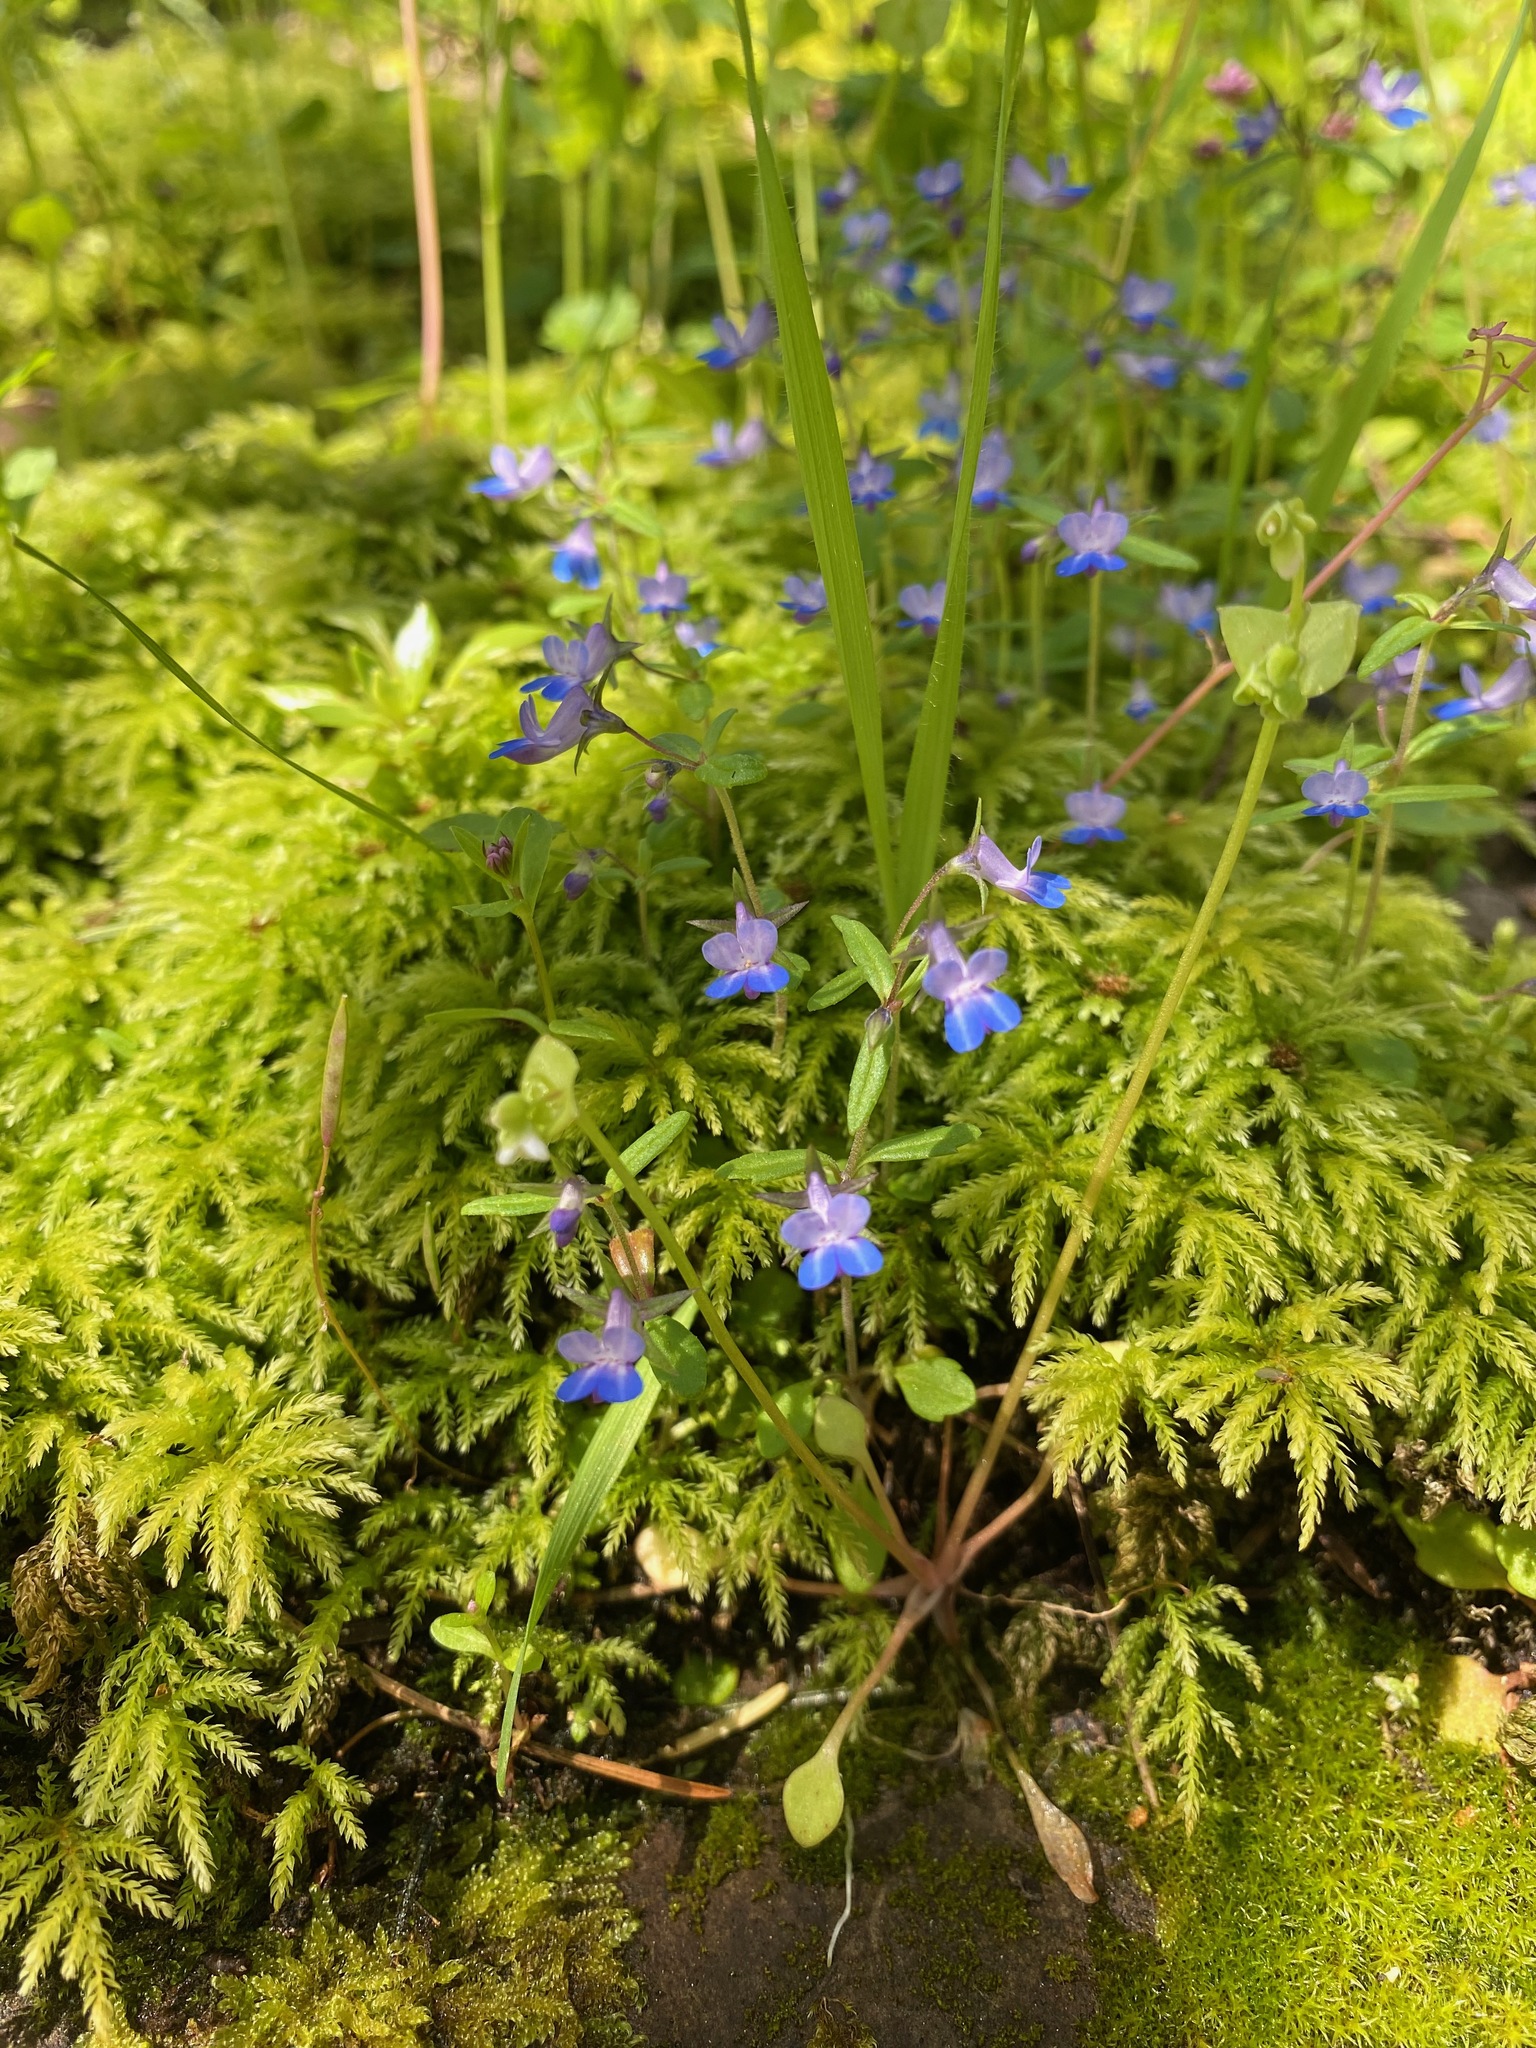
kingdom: Plantae
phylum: Tracheophyta
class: Magnoliopsida
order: Lamiales
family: Plantaginaceae
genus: Collinsia
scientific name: Collinsia grandiflora
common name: Large-flower blue-eyed-mary
